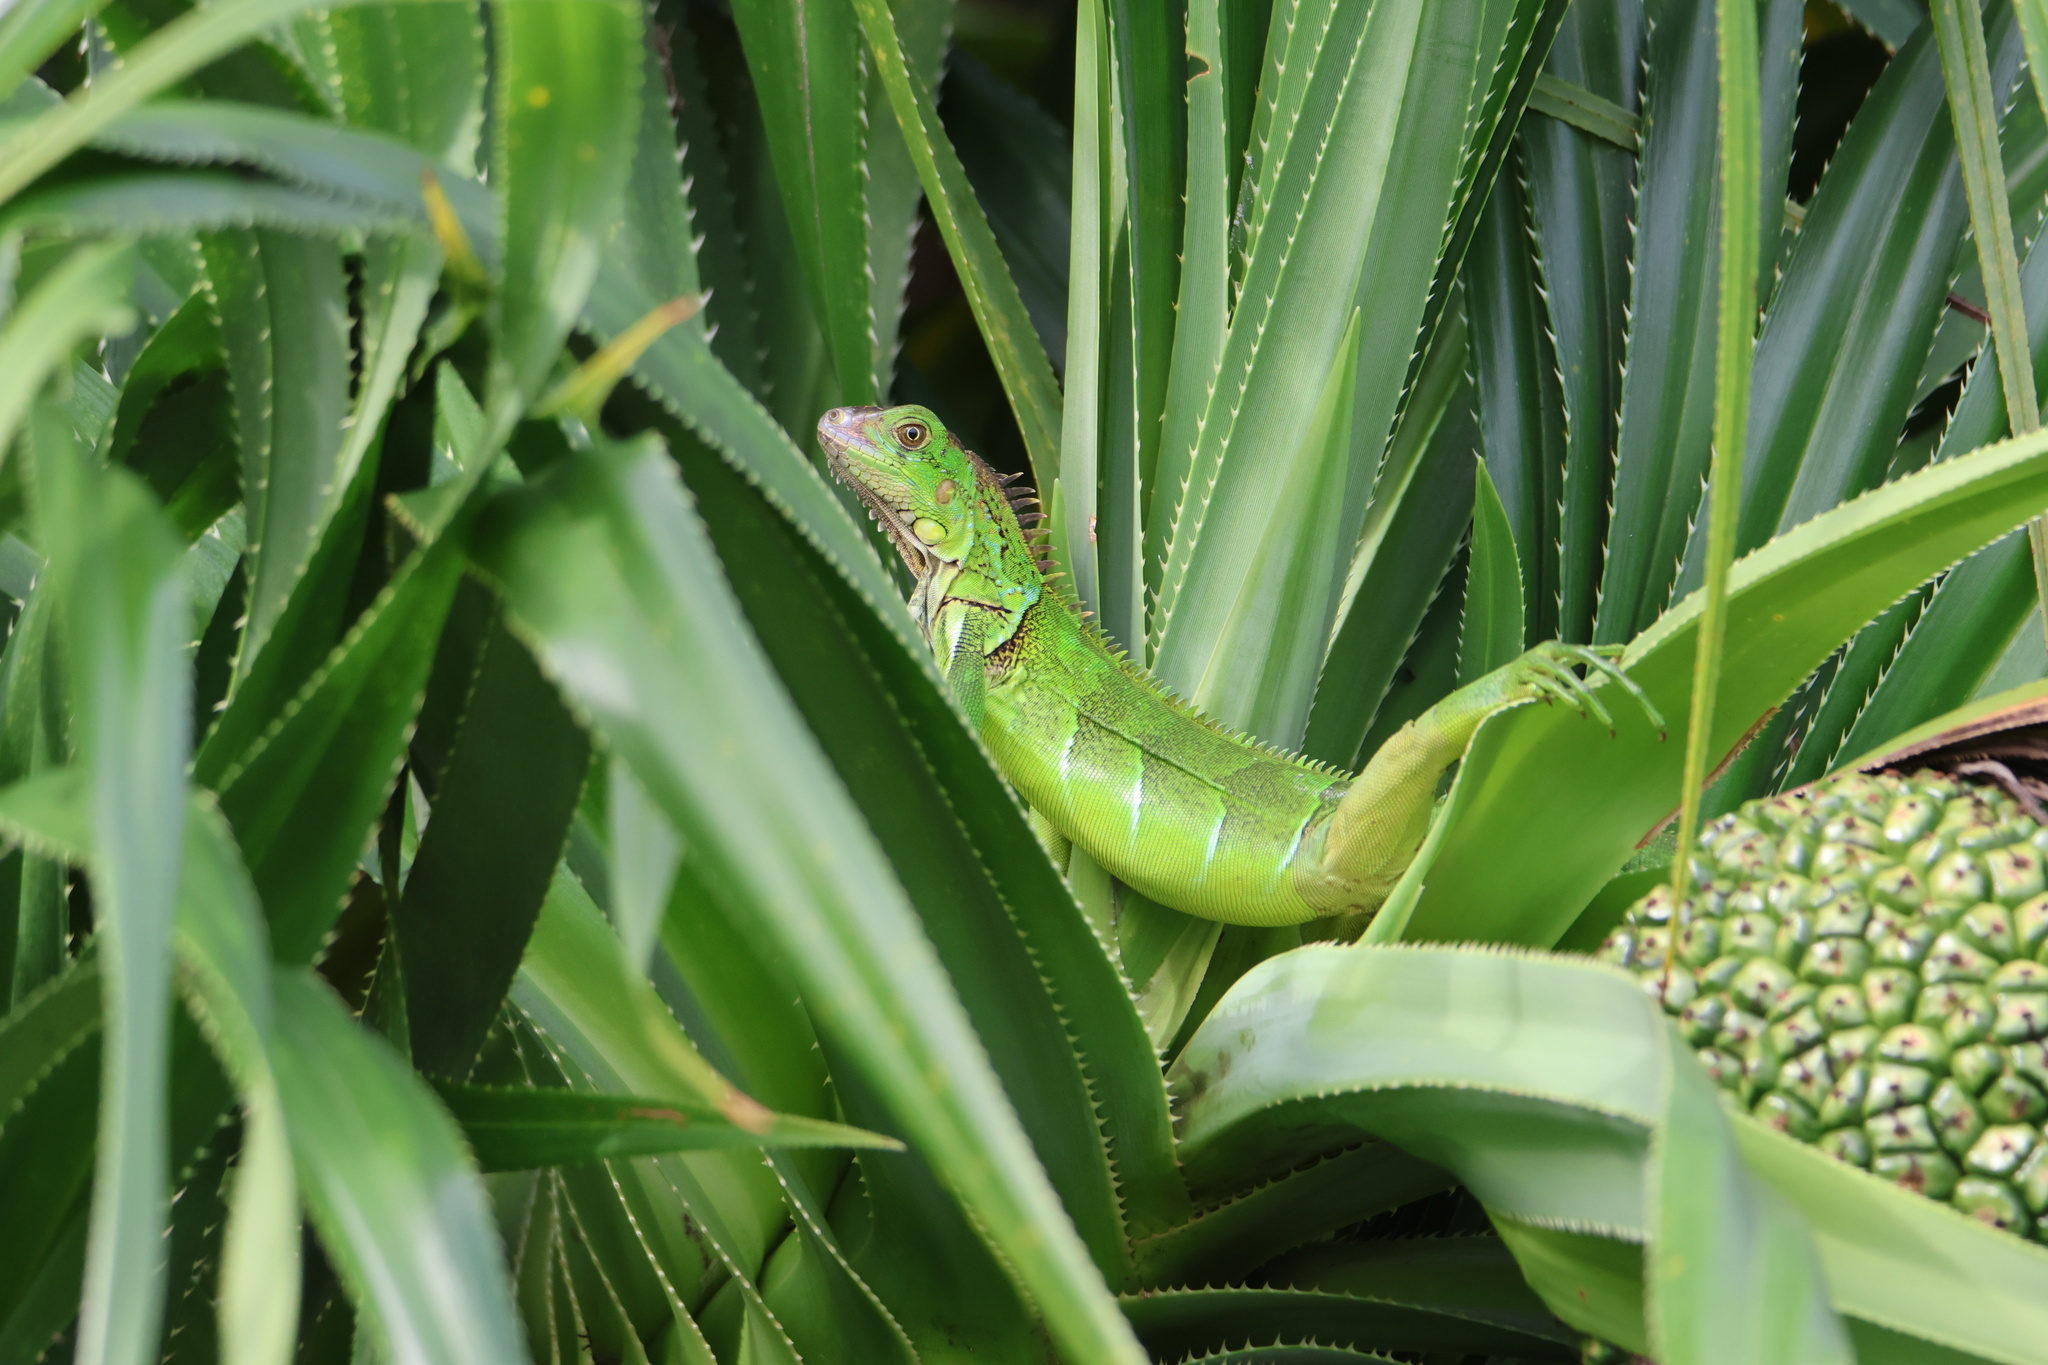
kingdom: Animalia
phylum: Chordata
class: Squamata
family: Iguanidae
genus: Iguana
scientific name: Iguana iguana
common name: Green iguana
